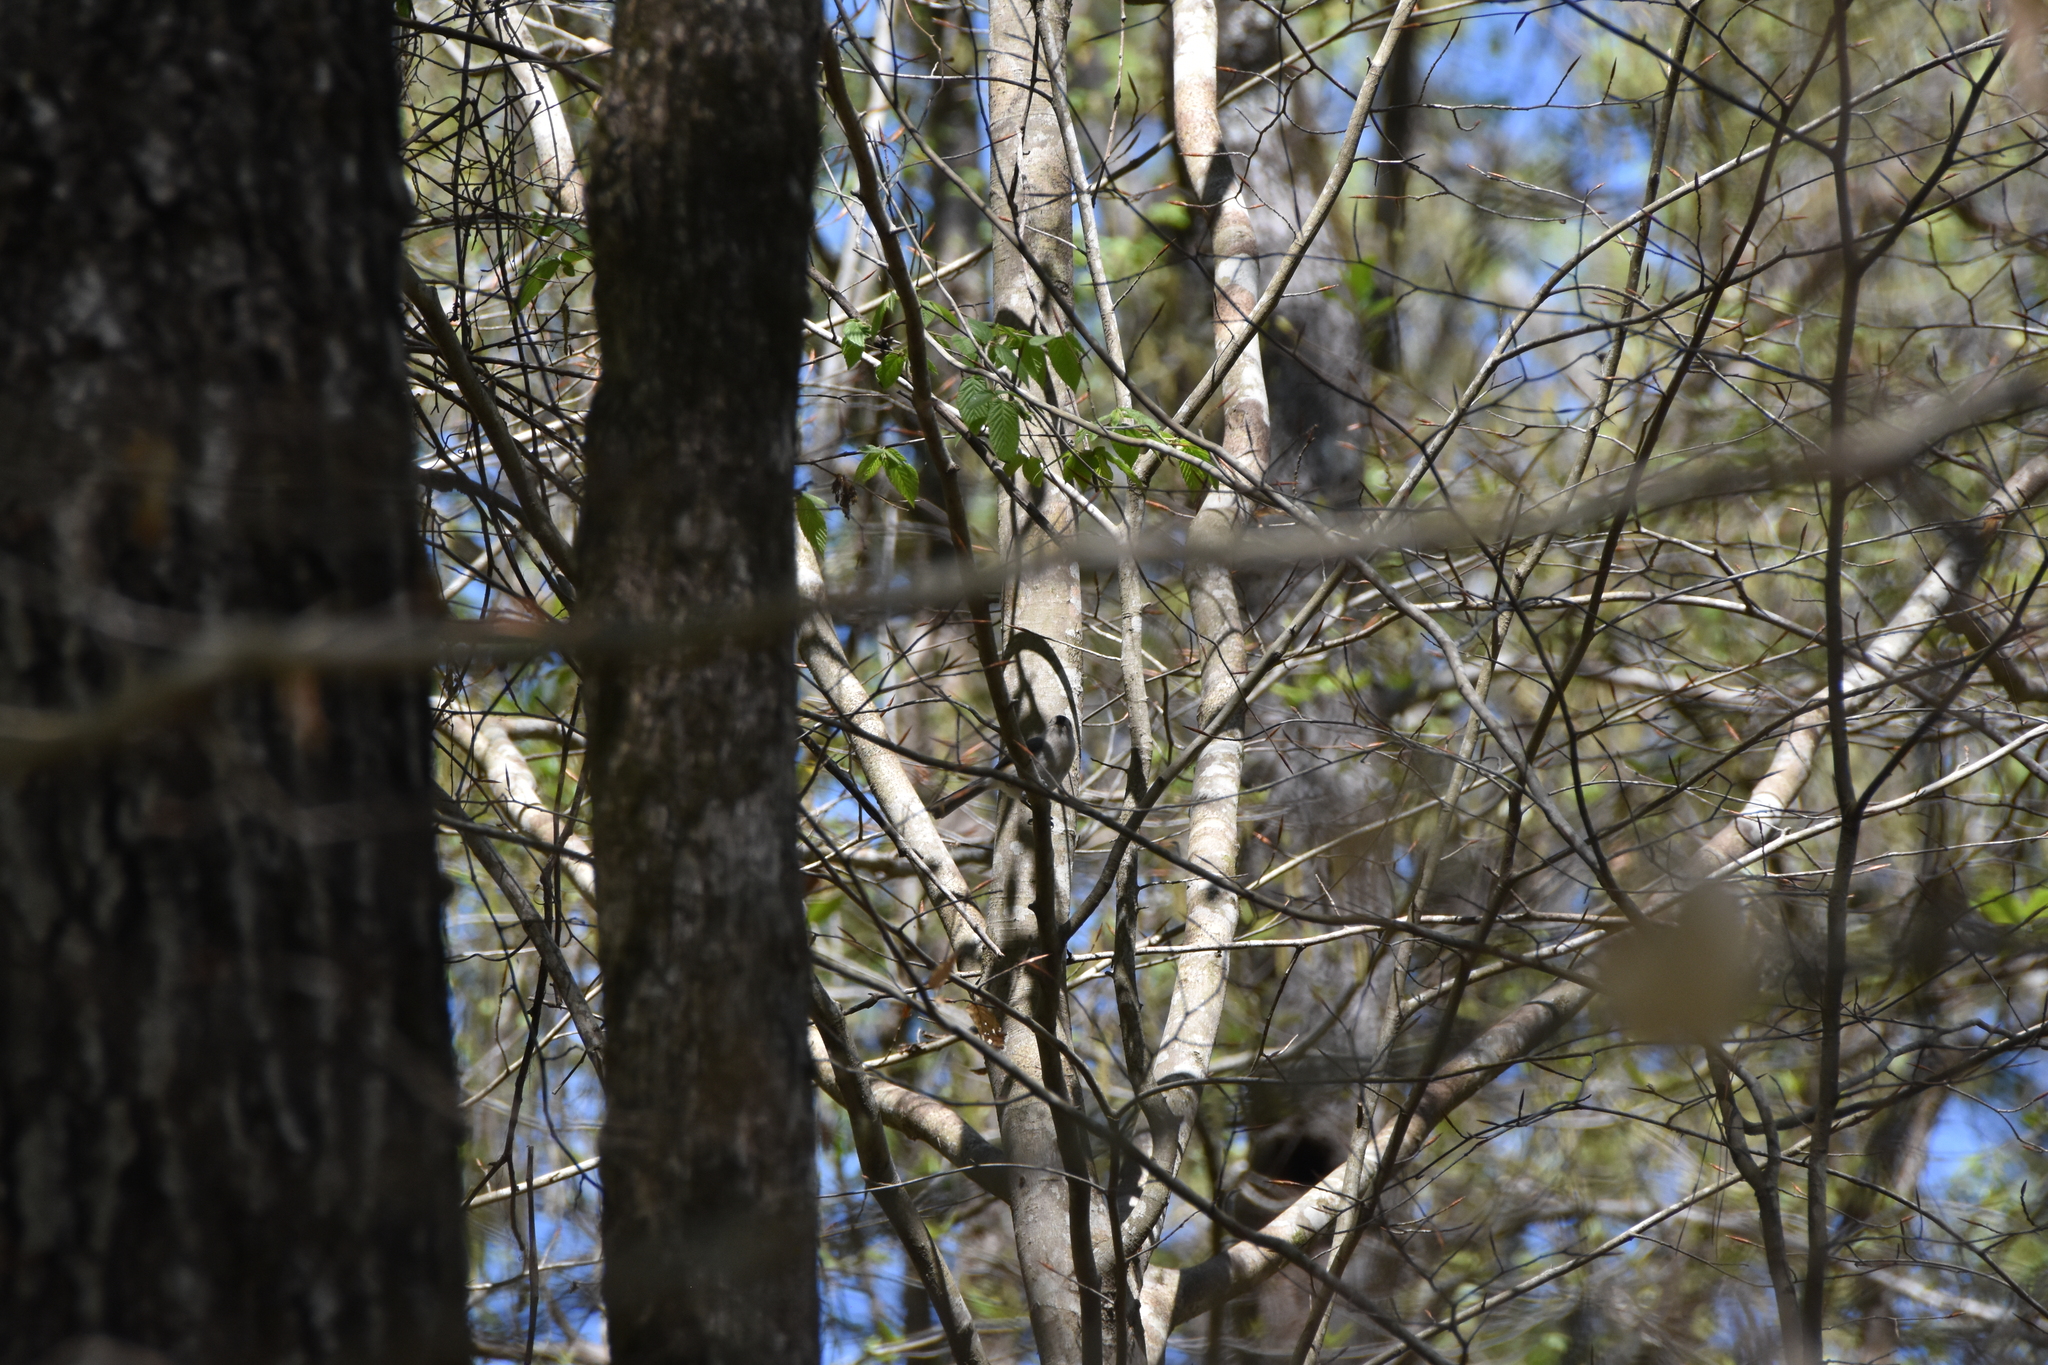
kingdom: Animalia
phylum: Chordata
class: Aves
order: Passeriformes
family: Paridae
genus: Baeolophus
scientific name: Baeolophus bicolor
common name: Tufted titmouse
